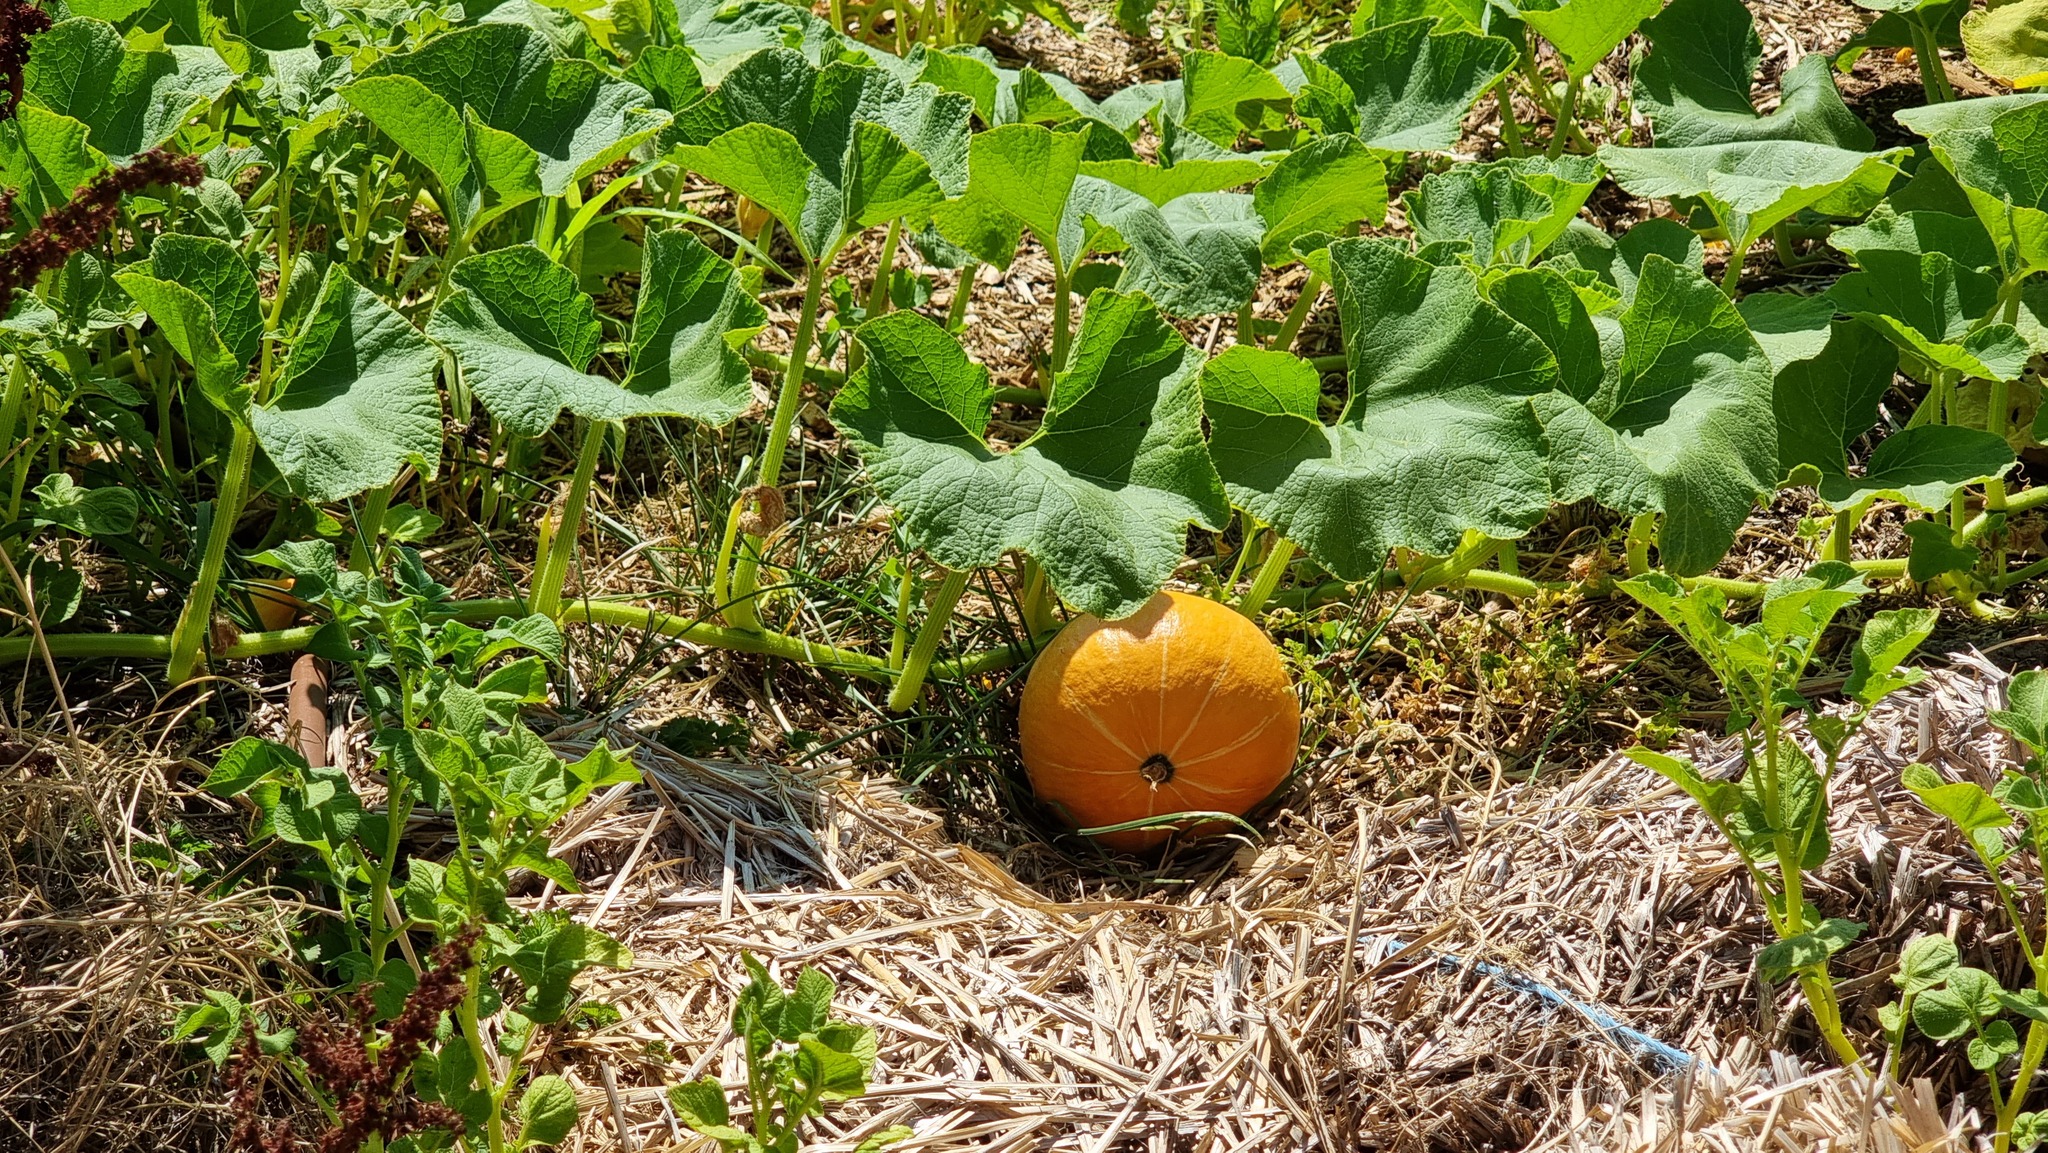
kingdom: Plantae
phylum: Tracheophyta
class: Magnoliopsida
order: Cucurbitales
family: Cucurbitaceae
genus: Cucurbita
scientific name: Cucurbita maxima
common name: Pumpkin
